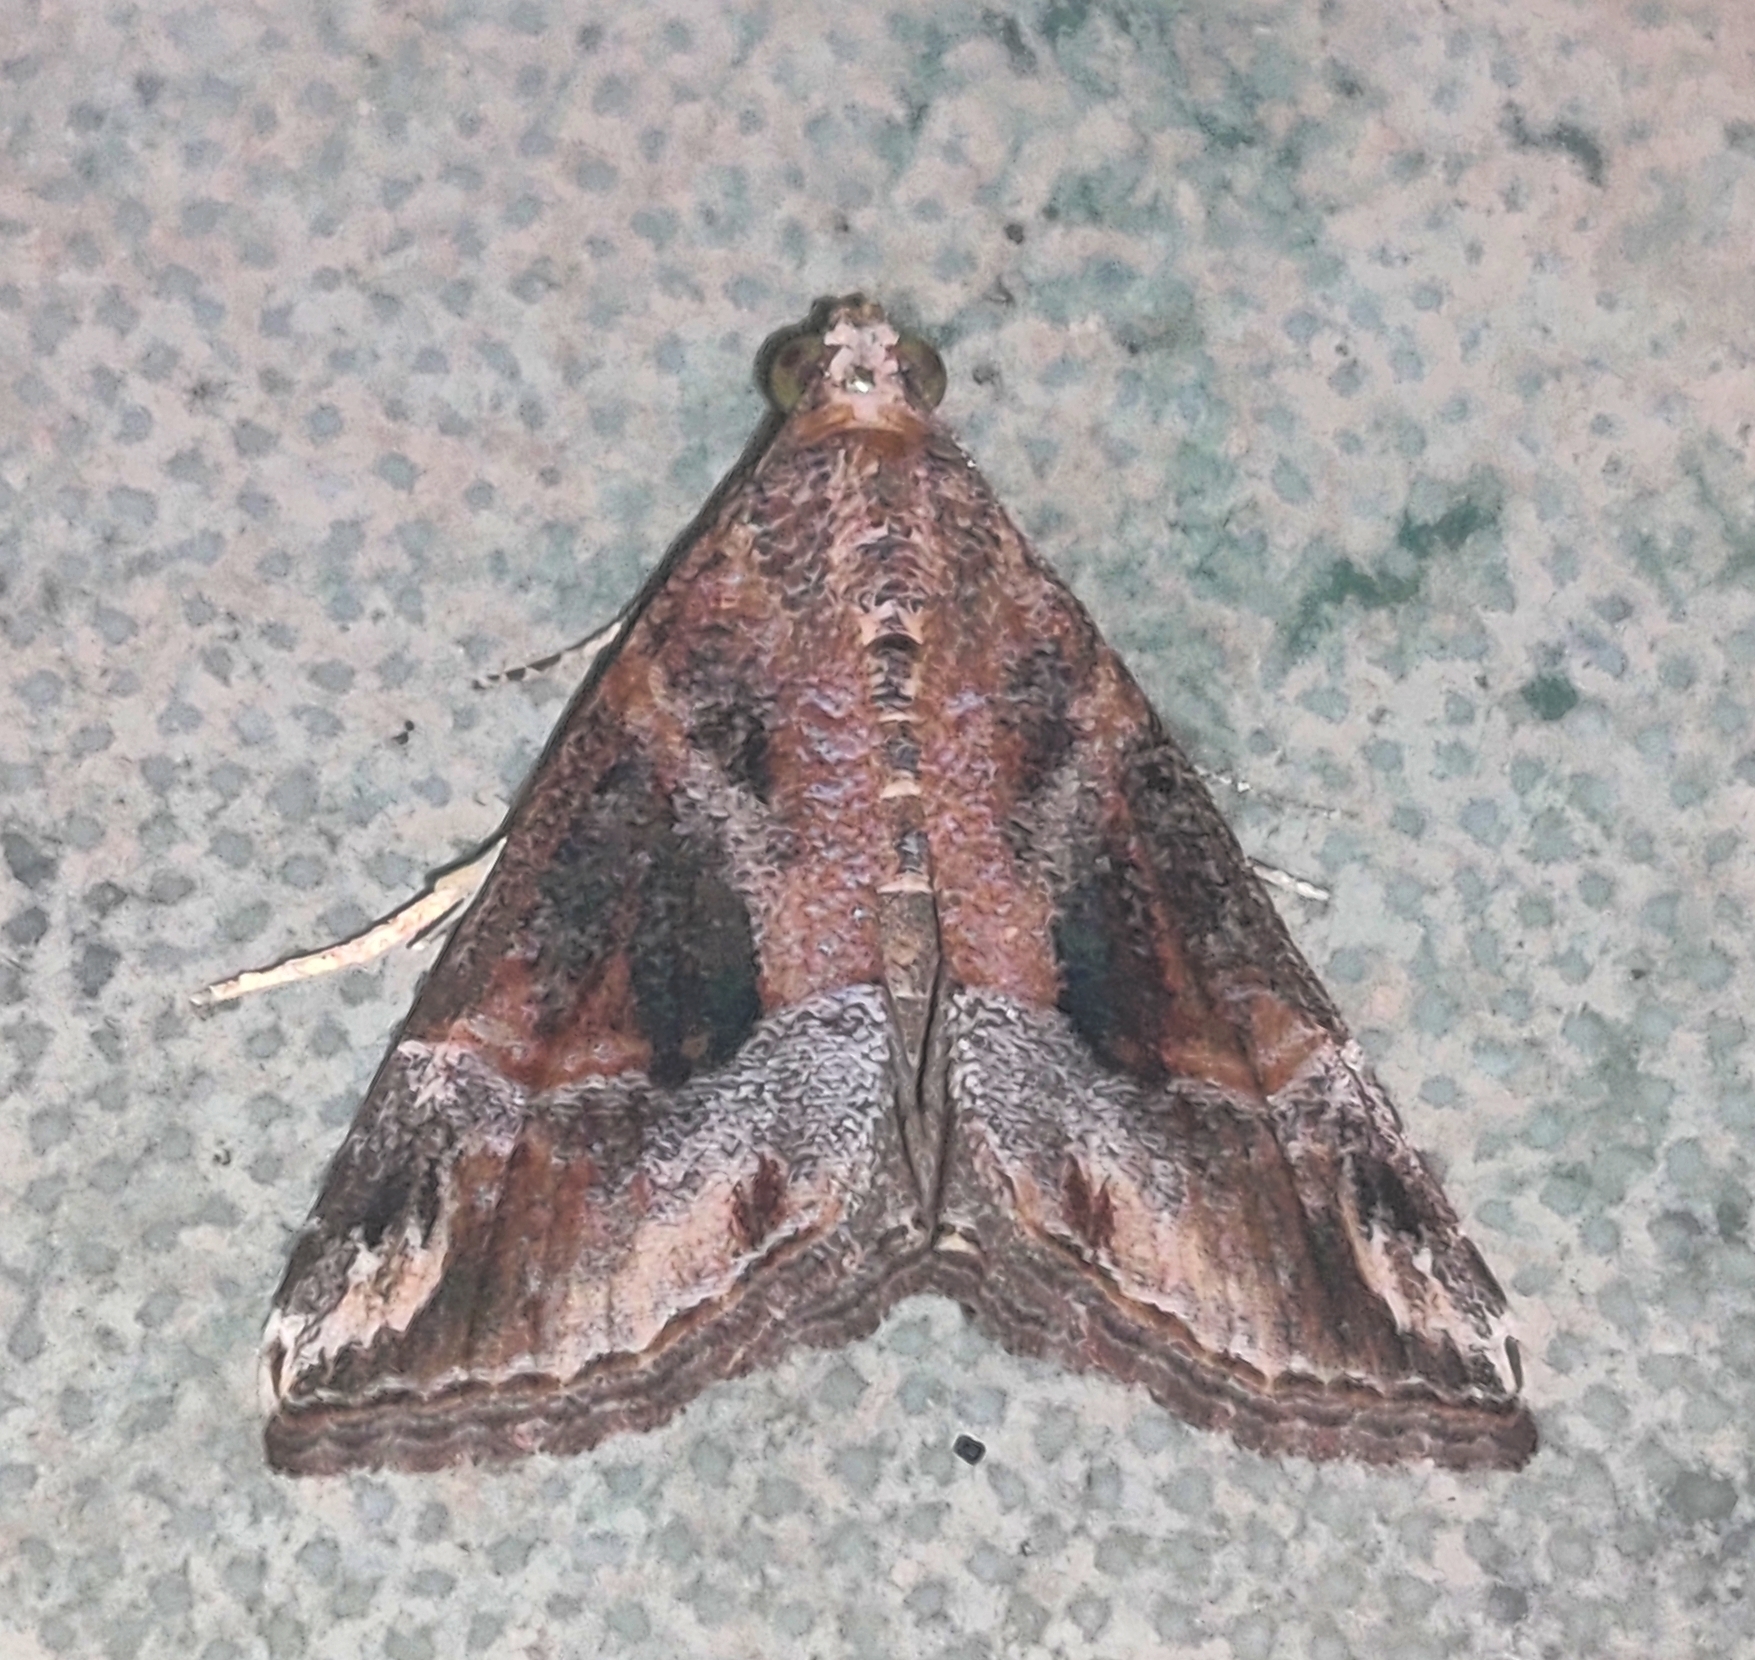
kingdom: Animalia
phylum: Arthropoda
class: Insecta
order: Lepidoptera
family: Erebidae
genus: Hypena
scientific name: Hypena commixtalis
